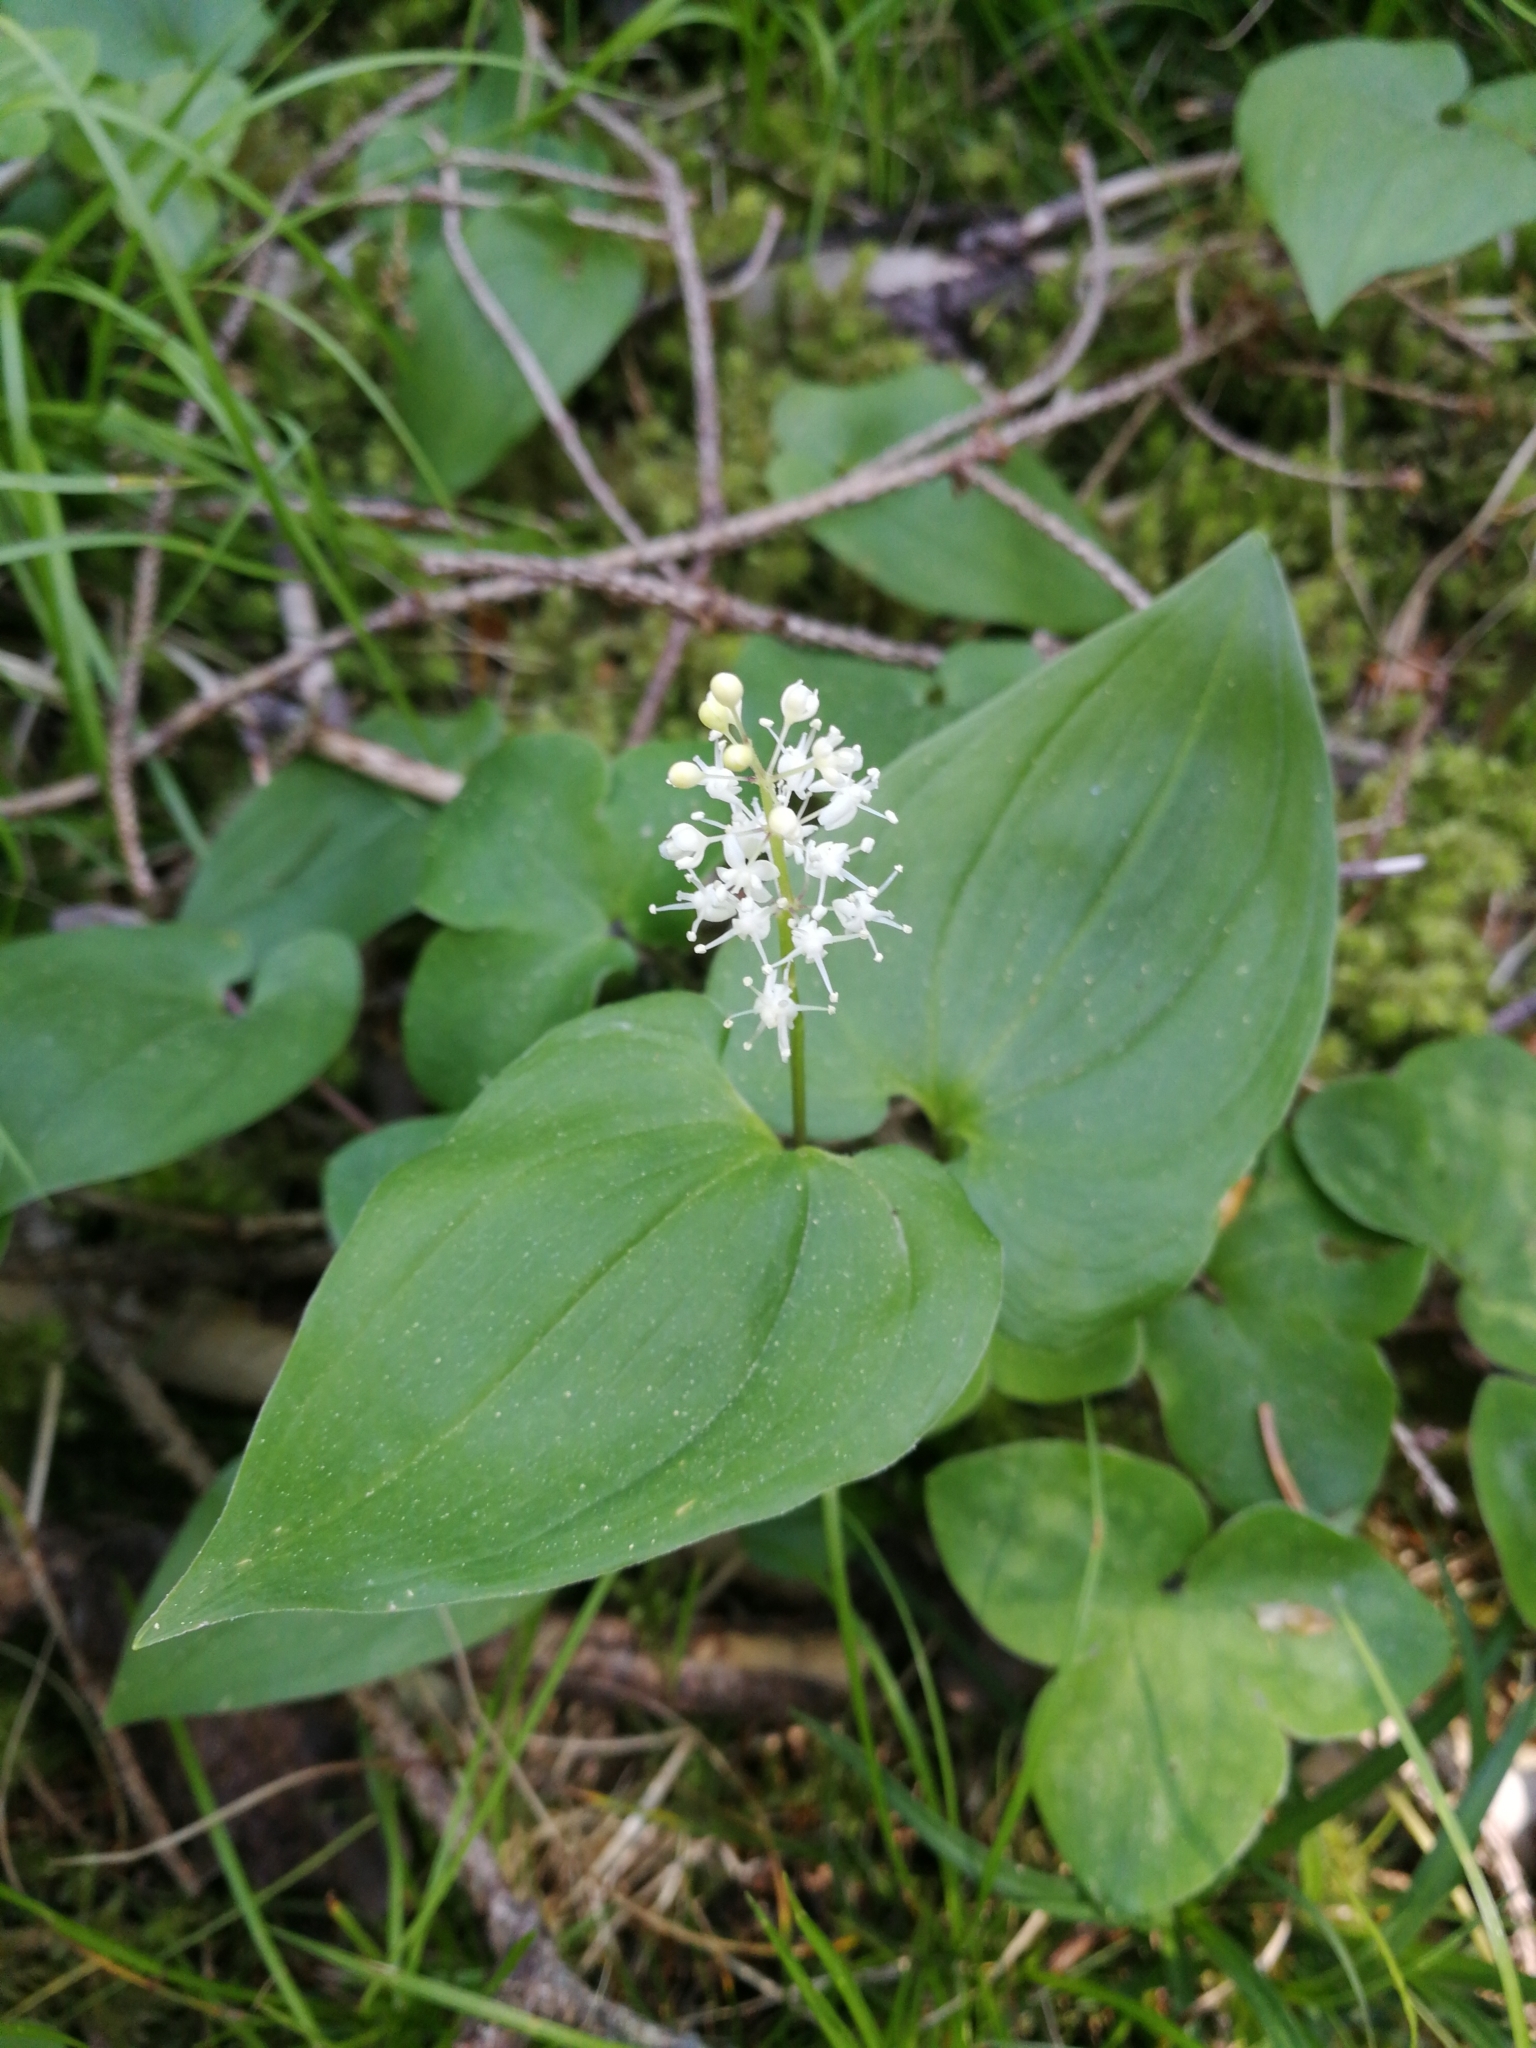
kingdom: Plantae
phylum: Tracheophyta
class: Liliopsida
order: Asparagales
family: Asparagaceae
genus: Maianthemum
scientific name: Maianthemum bifolium
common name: May lily
